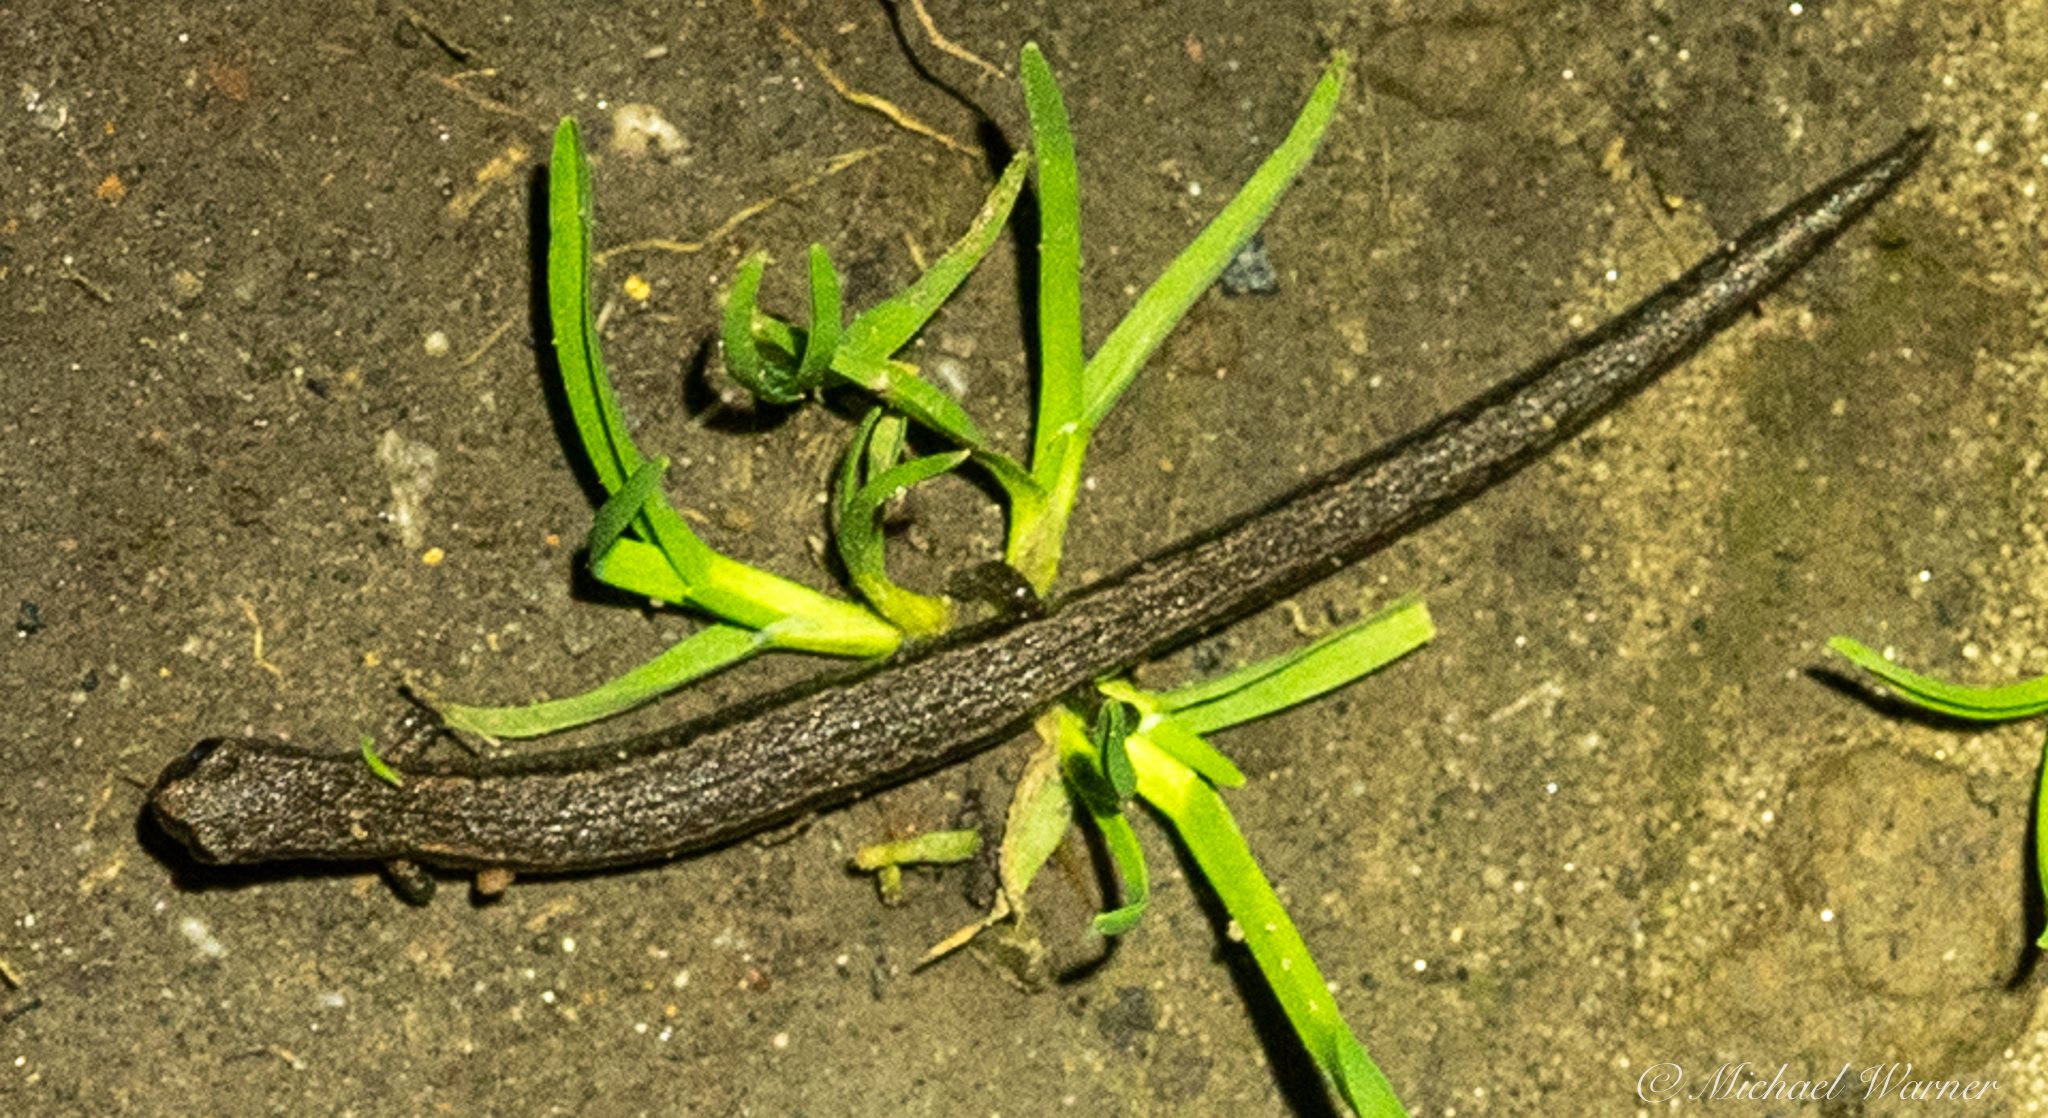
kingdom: Animalia
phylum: Chordata
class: Amphibia
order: Caudata
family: Plethodontidae
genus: Batrachoseps
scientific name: Batrachoseps attenuatus
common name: California slender salamander
